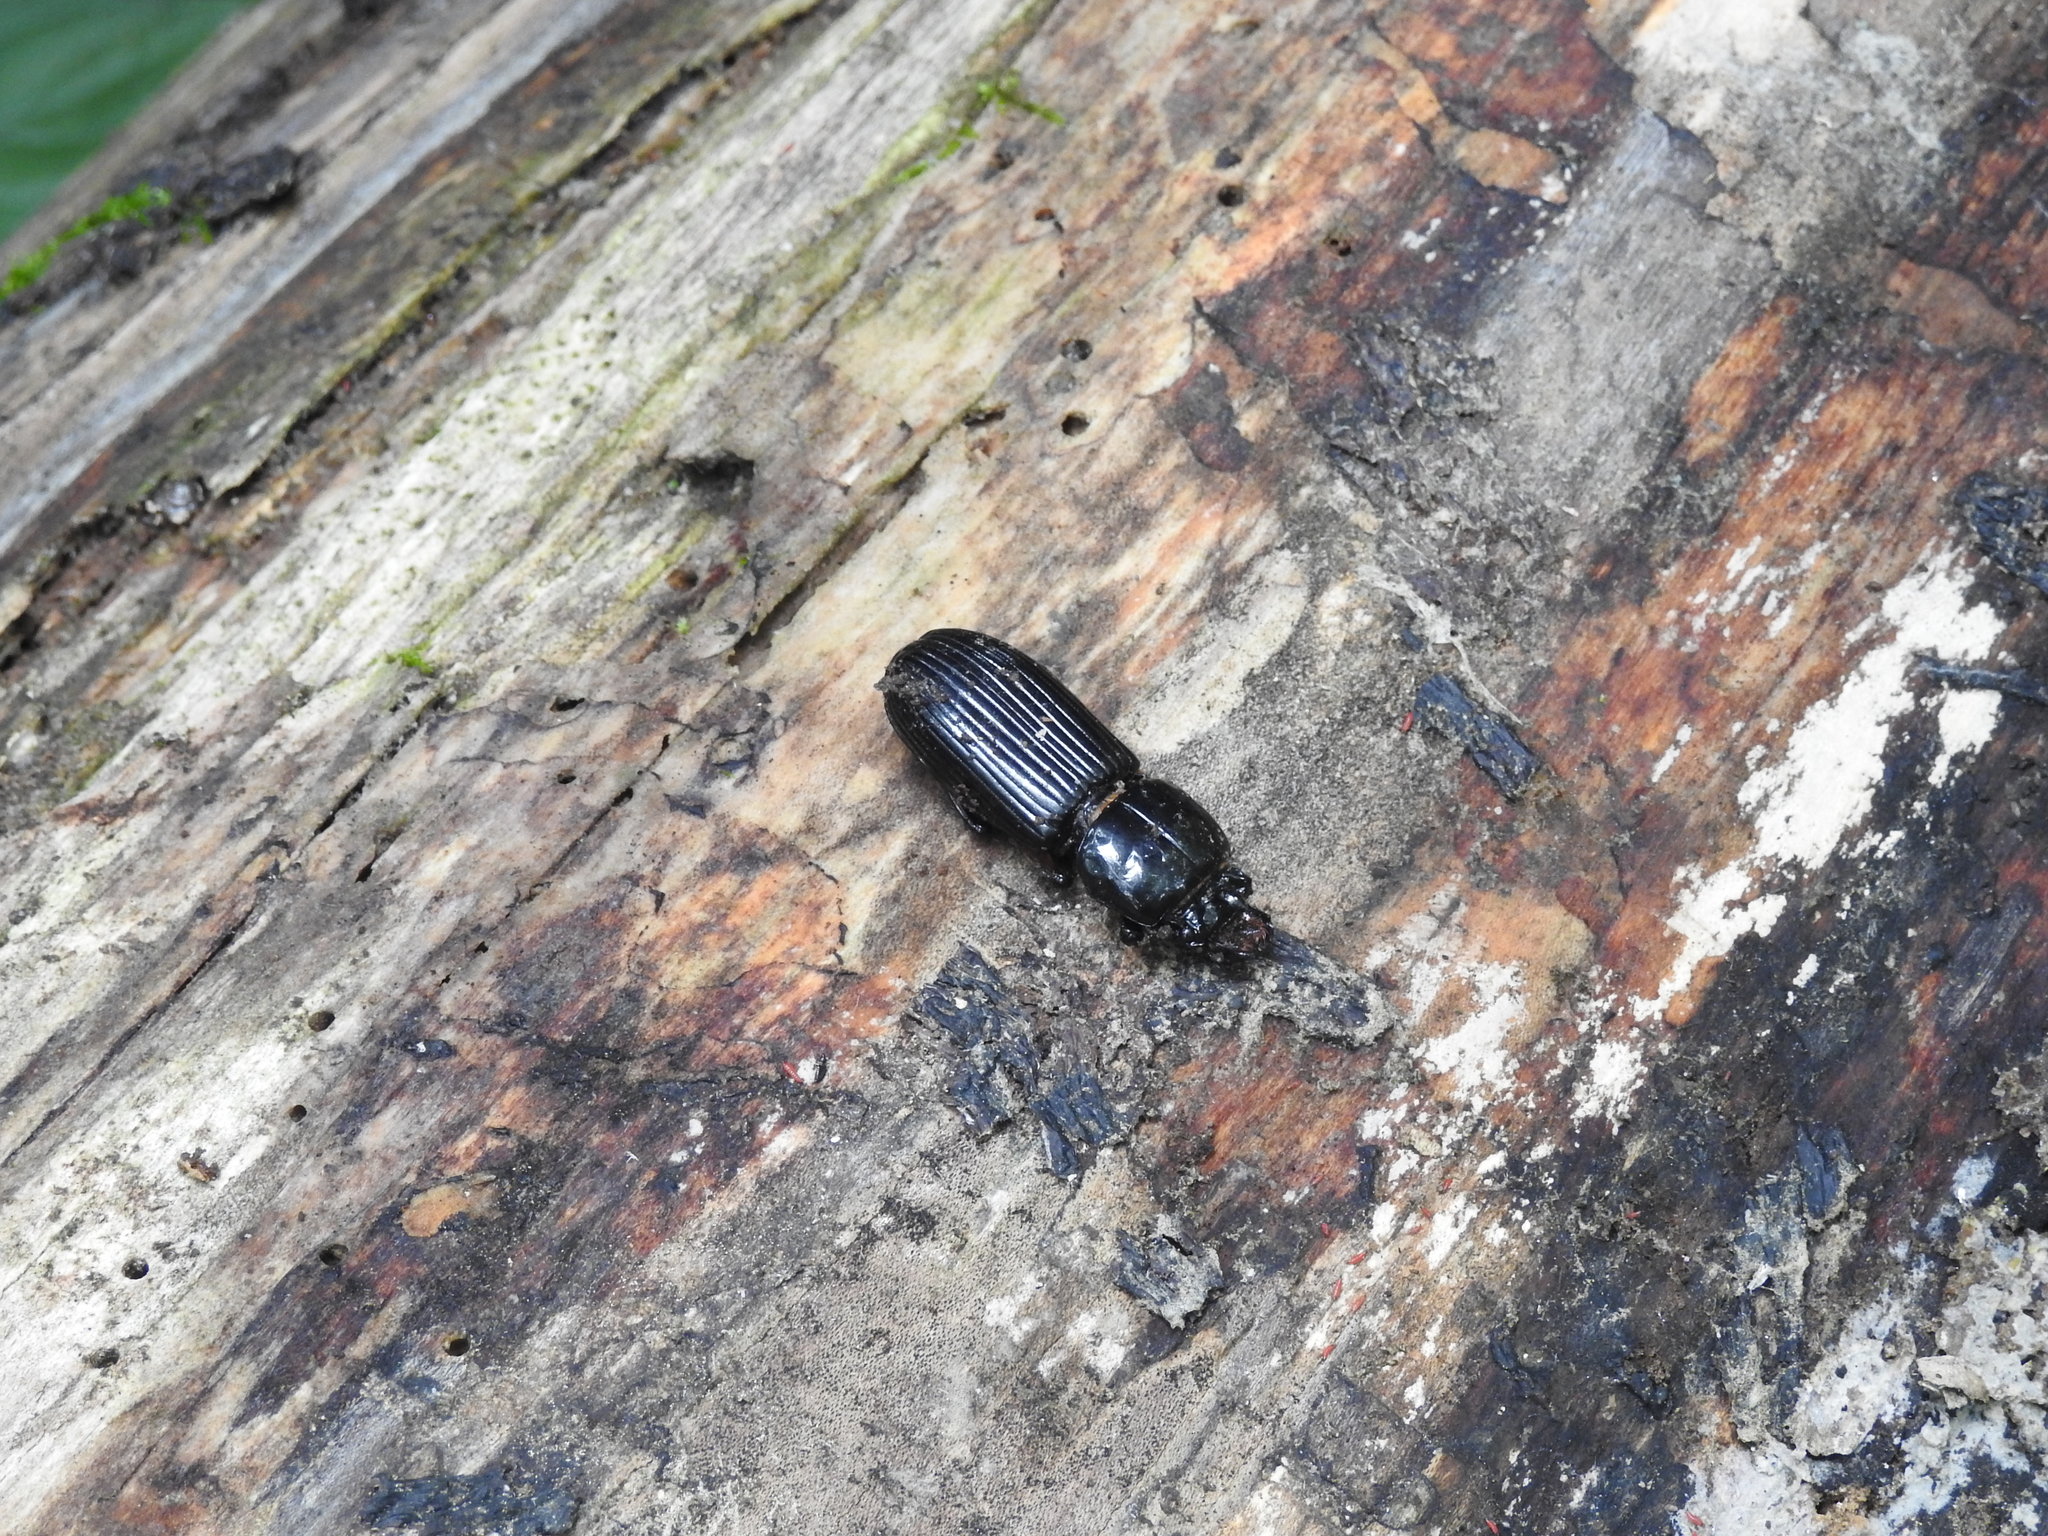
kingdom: Animalia
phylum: Arthropoda
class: Insecta
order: Coleoptera
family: Passalidae
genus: Odontotaenius
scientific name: Odontotaenius disjunctus
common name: Patent leather beetle
